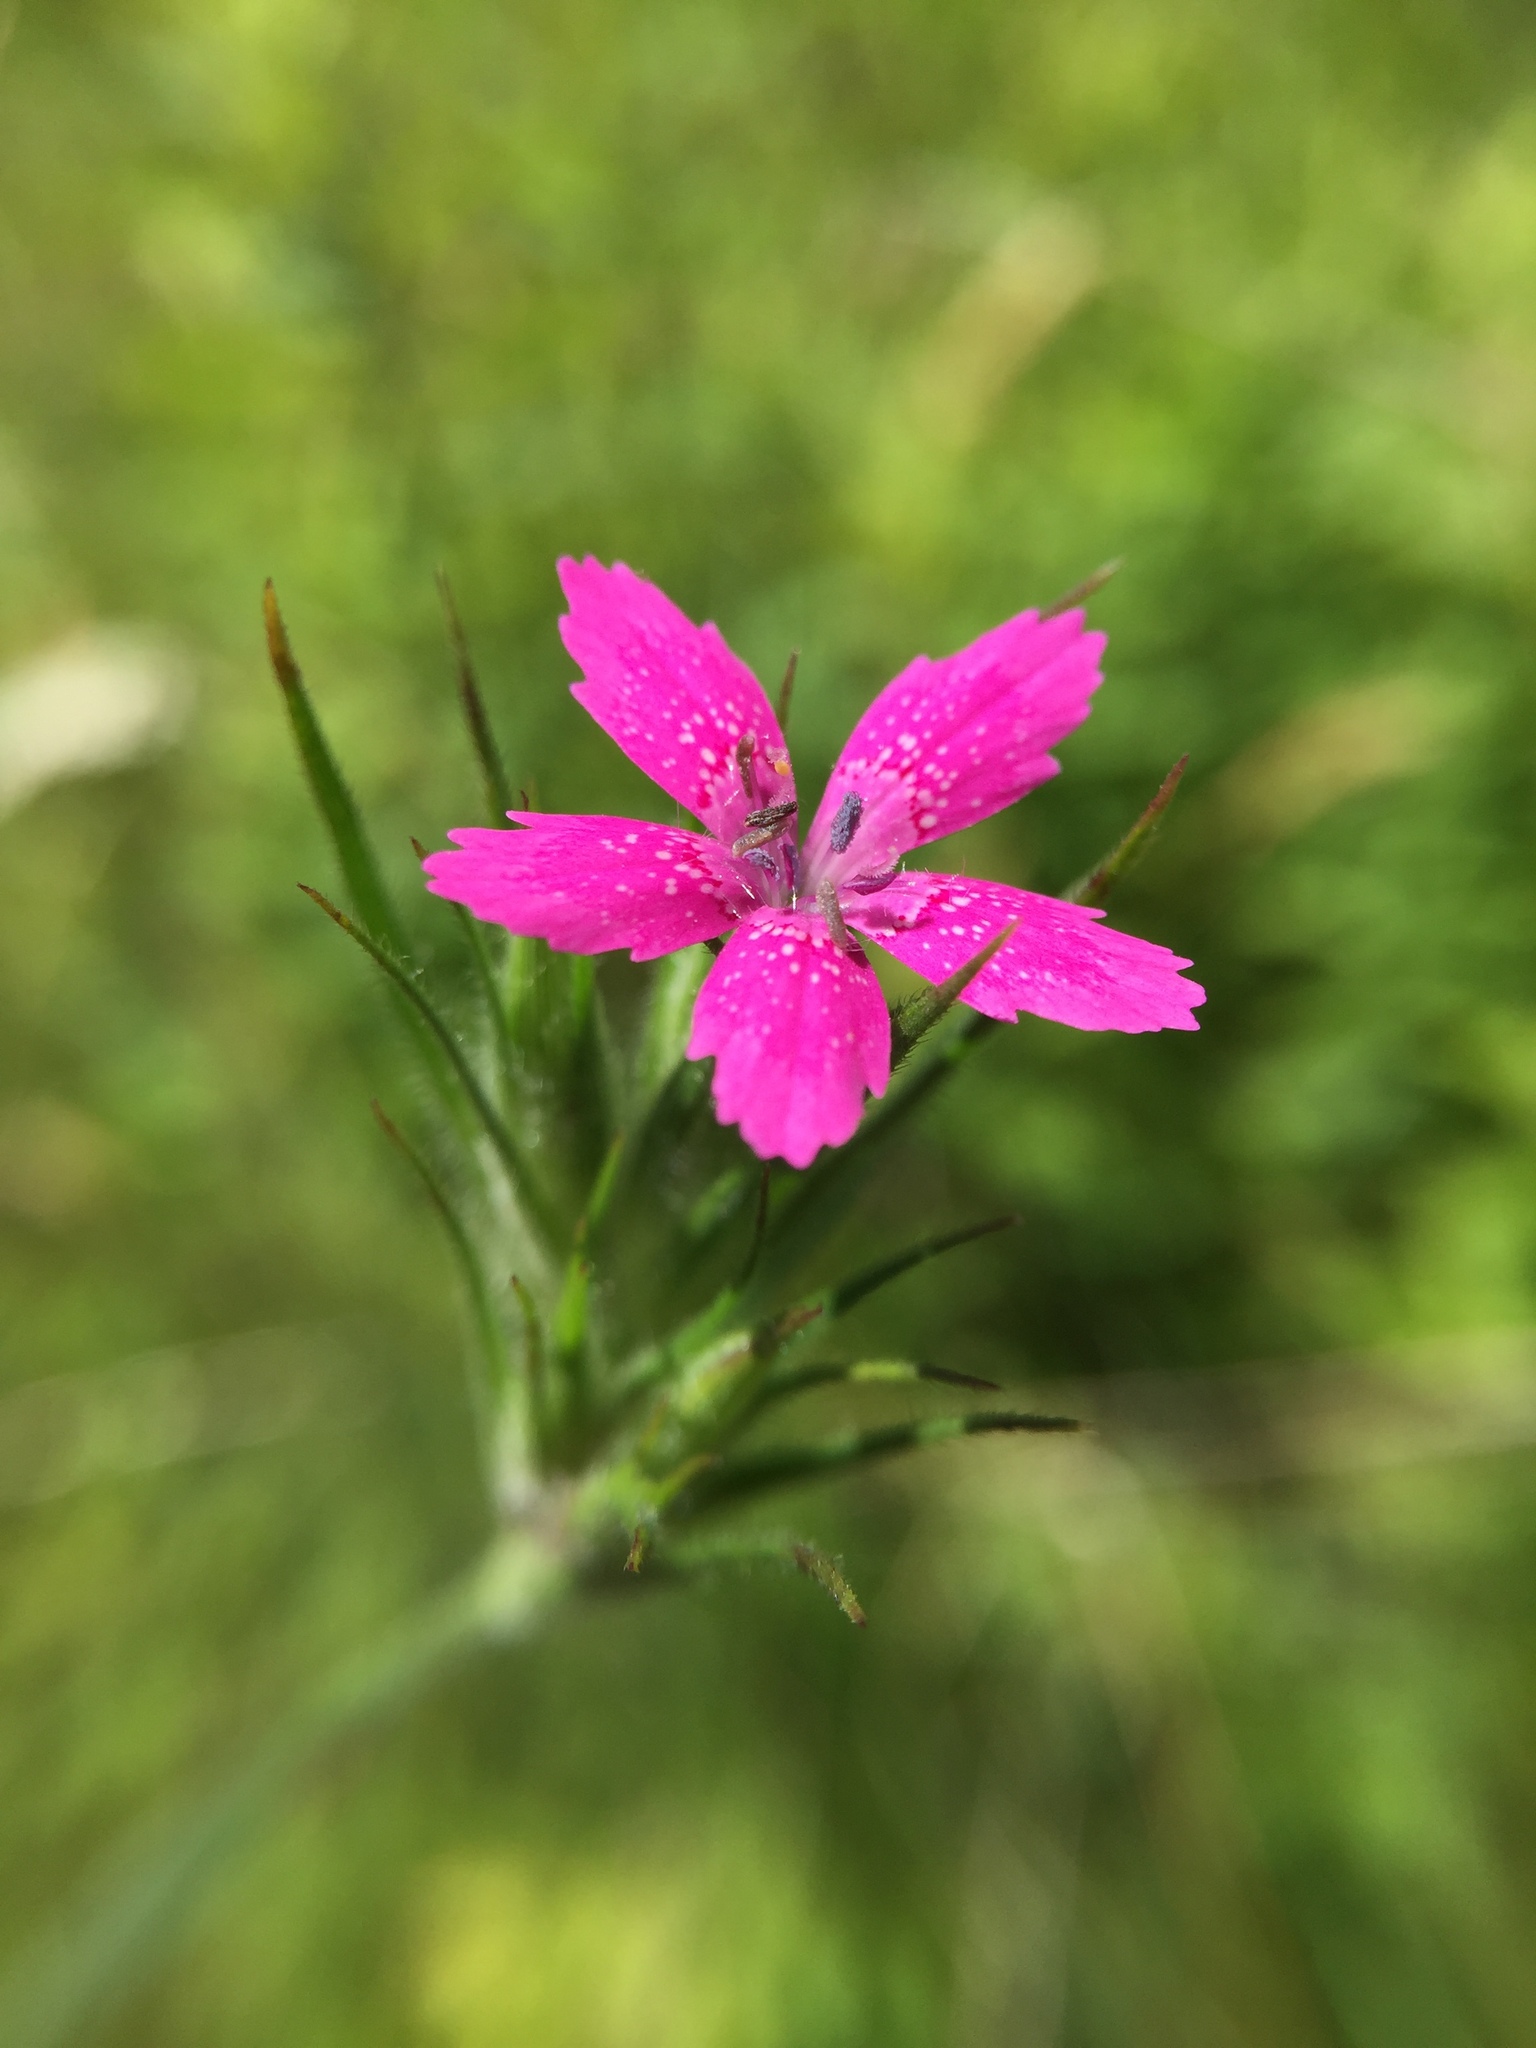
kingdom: Plantae
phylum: Tracheophyta
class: Magnoliopsida
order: Caryophyllales
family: Caryophyllaceae
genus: Dianthus
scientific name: Dianthus armeria
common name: Deptford pink
